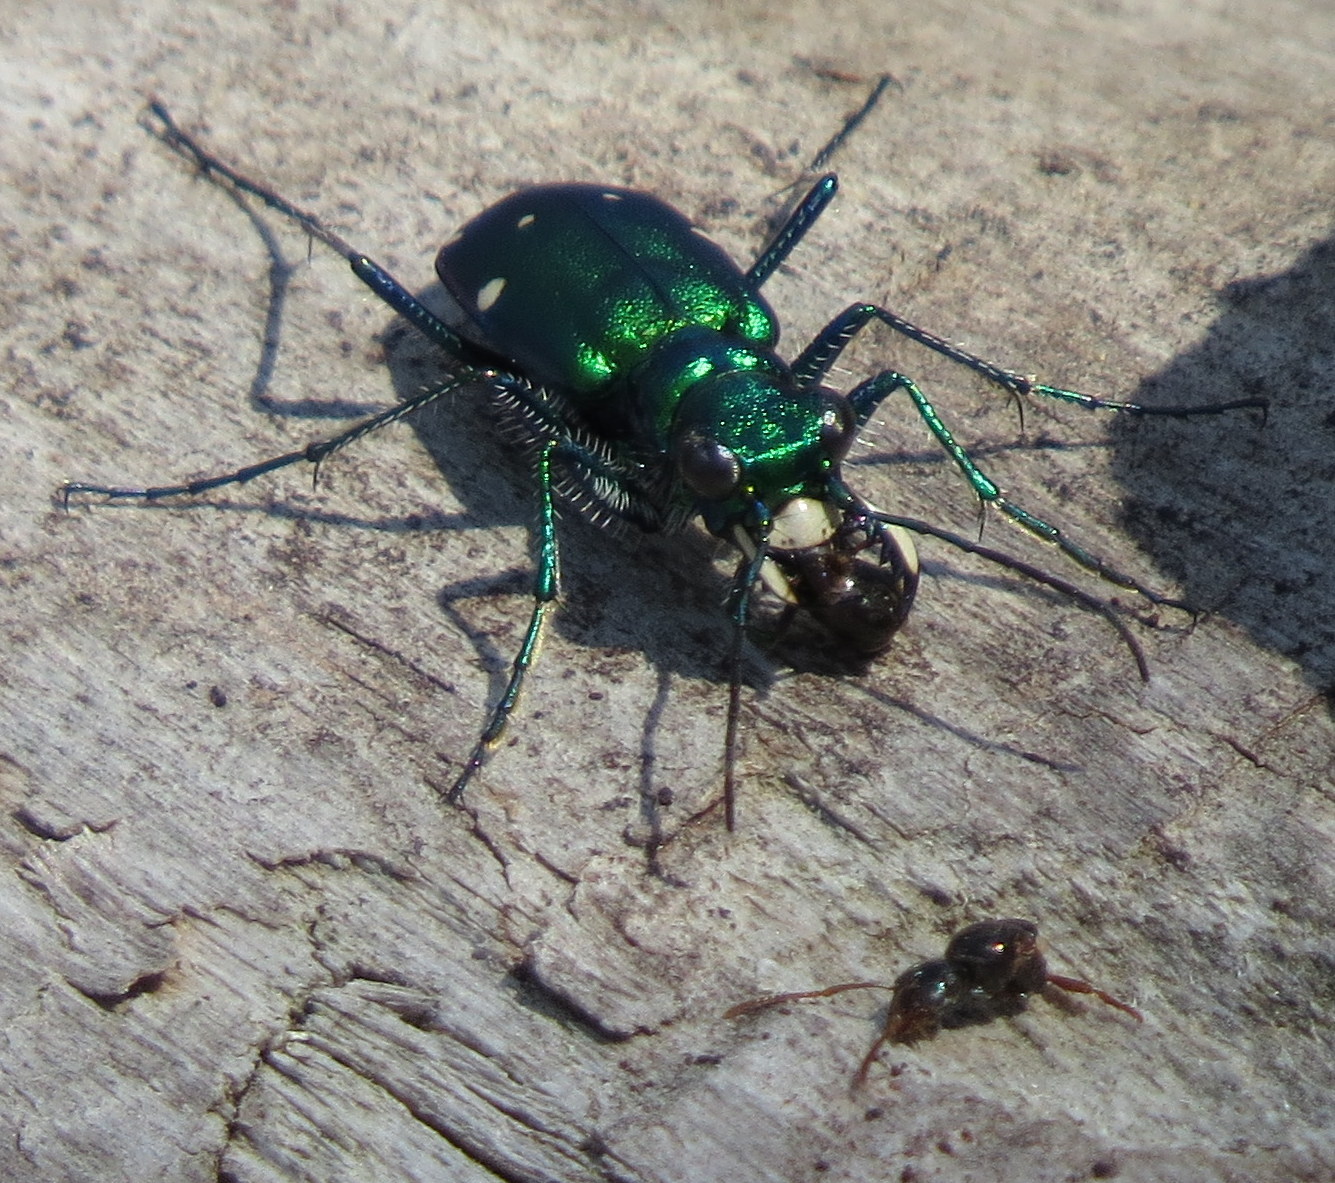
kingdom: Animalia
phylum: Arthropoda
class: Insecta
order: Coleoptera
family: Carabidae
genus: Cicindela
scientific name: Cicindela sexguttata
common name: Six-spotted tiger beetle
